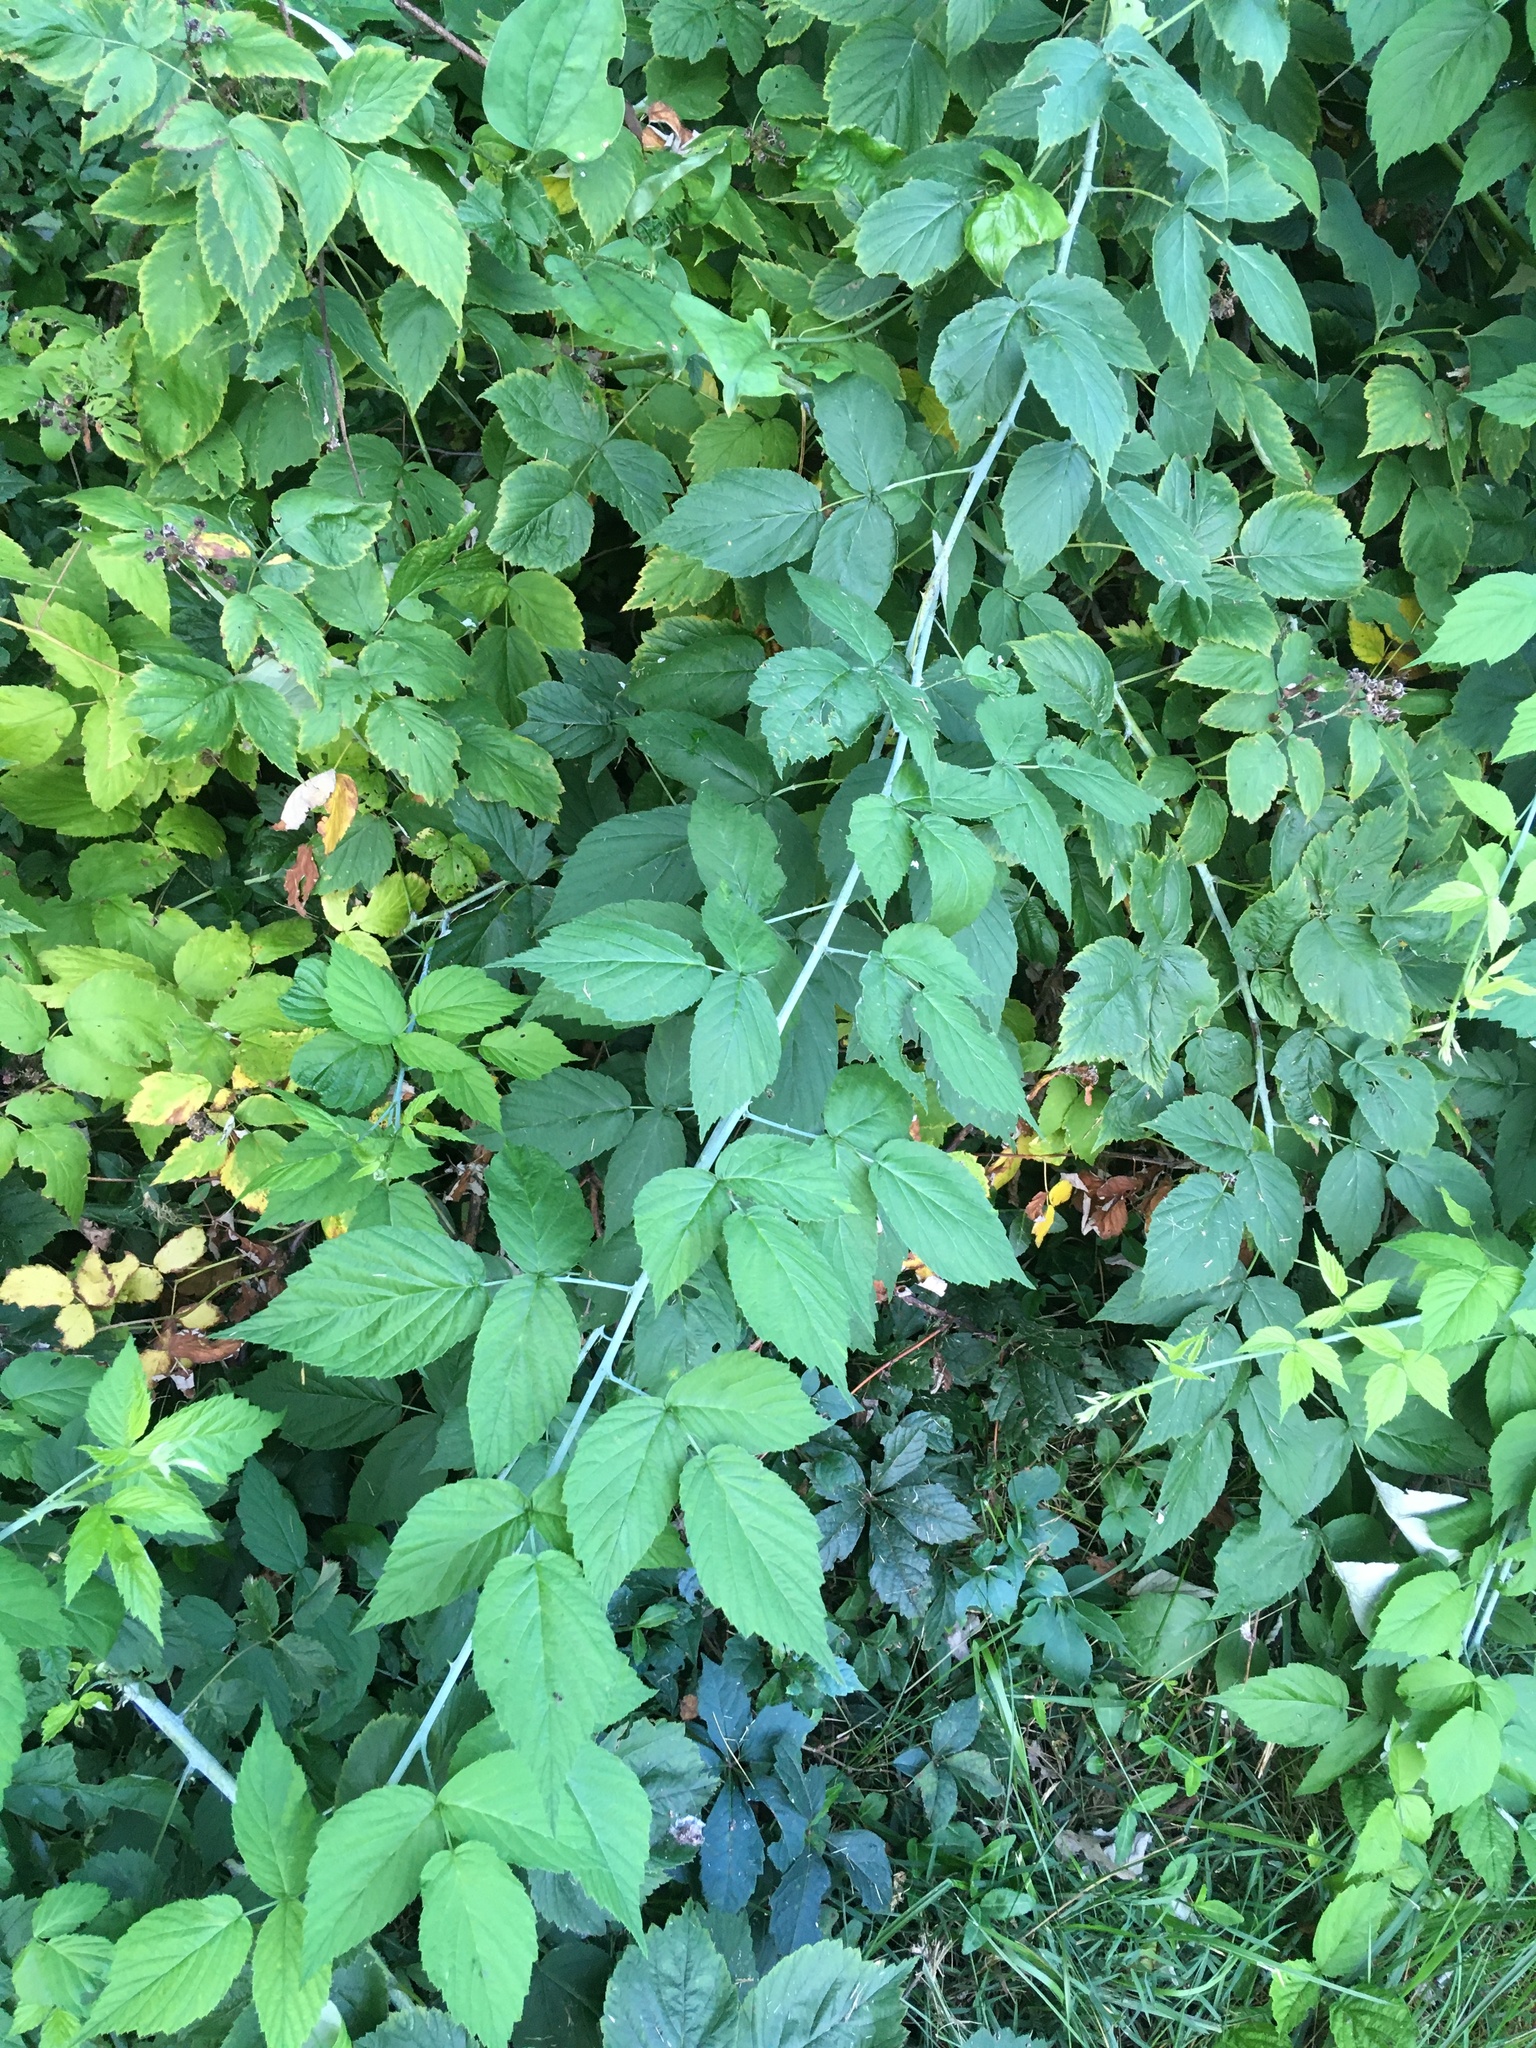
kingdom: Plantae
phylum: Tracheophyta
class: Magnoliopsida
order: Rosales
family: Rosaceae
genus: Rubus
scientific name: Rubus occidentalis
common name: Black raspberry
